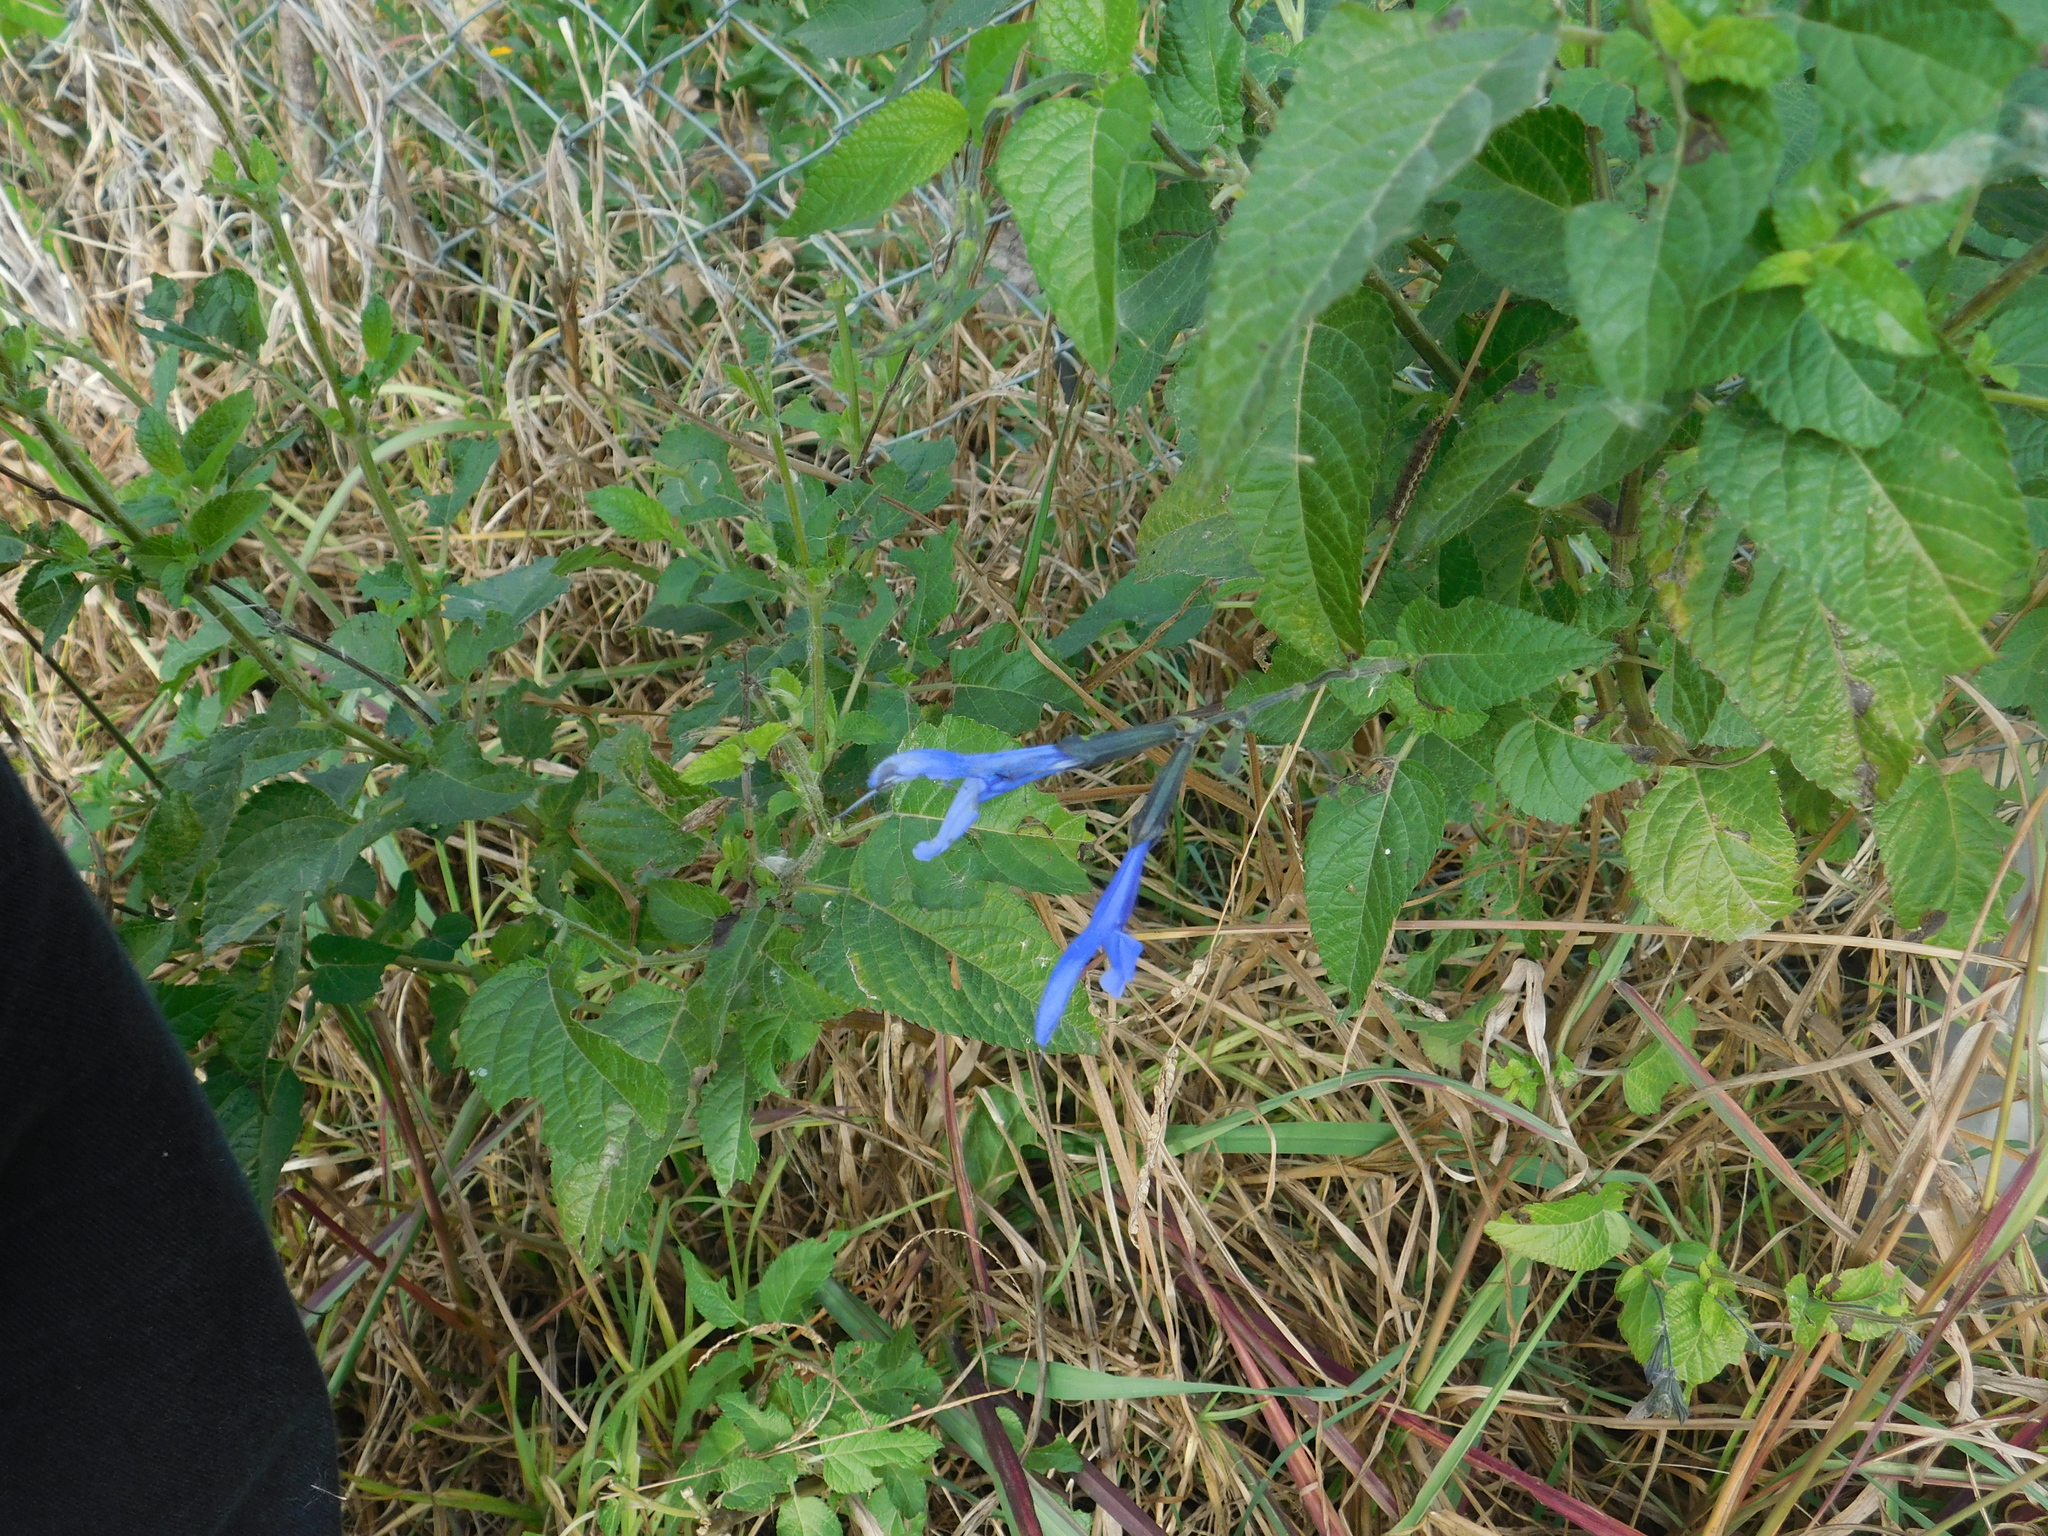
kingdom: Plantae
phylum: Tracheophyta
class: Magnoliopsida
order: Lamiales
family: Lamiaceae
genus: Salvia
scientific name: Salvia guaranitica
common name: Anise-scented sage
